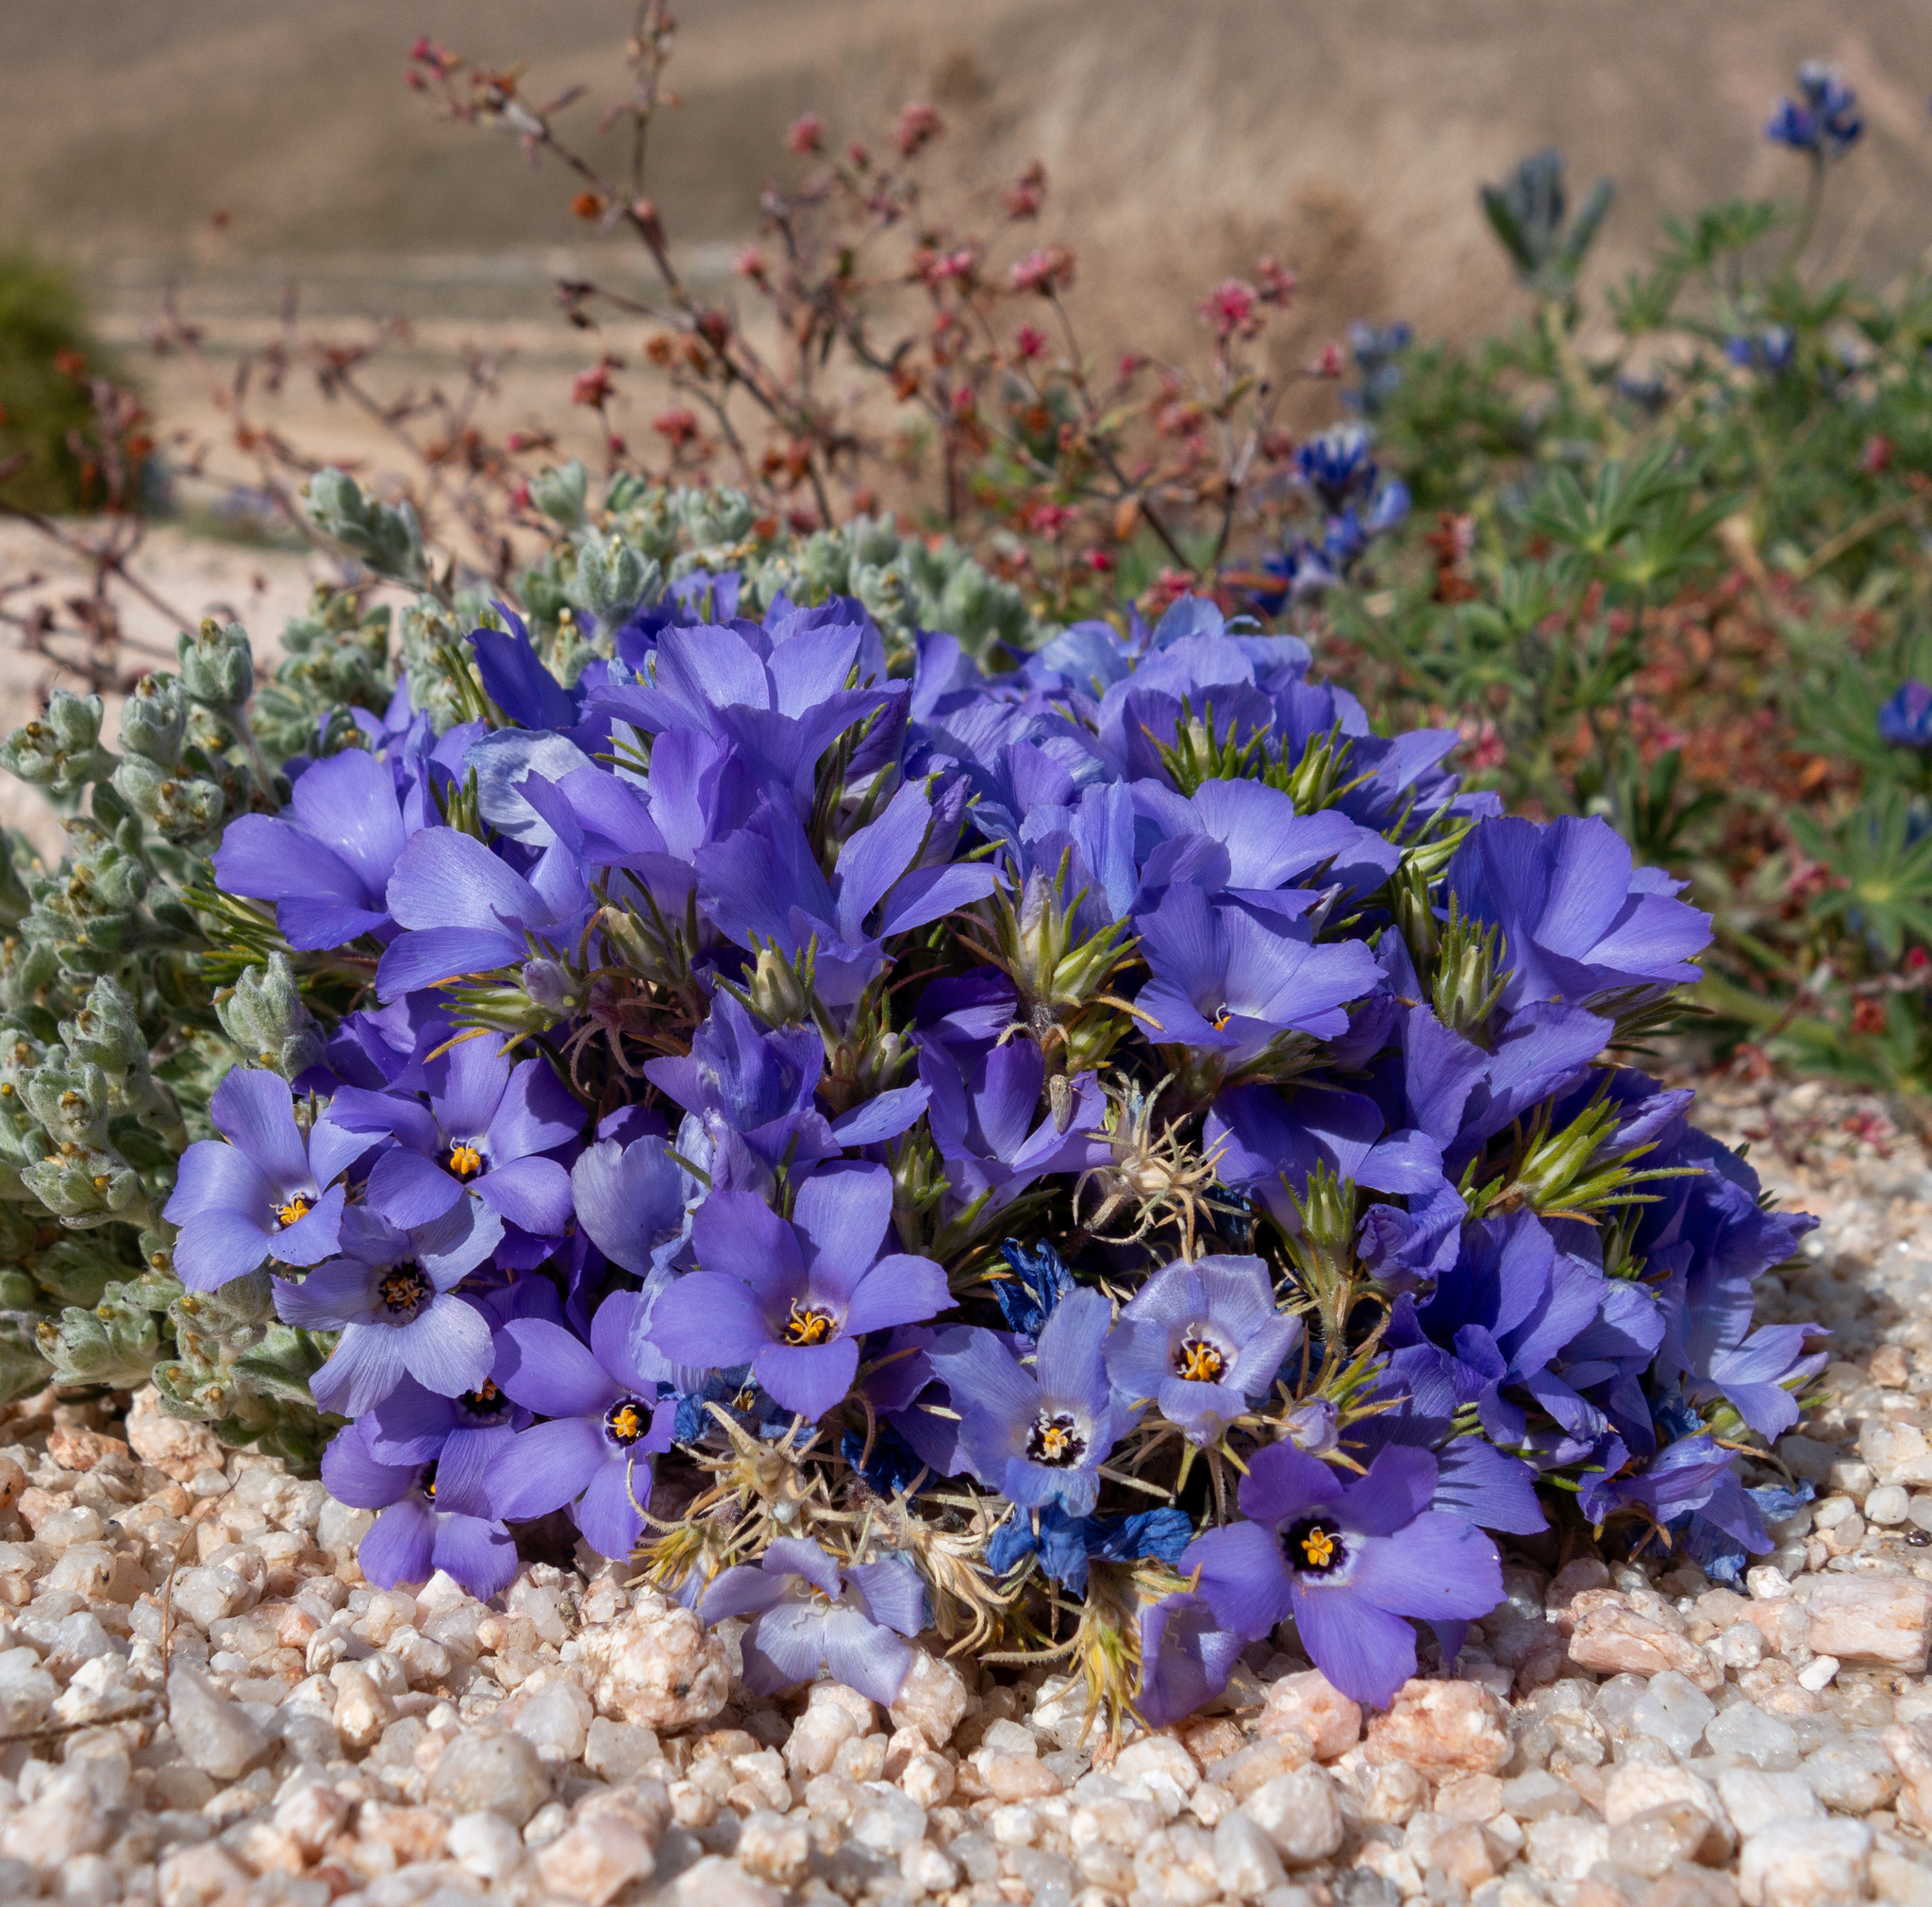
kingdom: Plantae
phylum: Tracheophyta
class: Magnoliopsida
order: Ericales
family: Polemoniaceae
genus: Linanthus
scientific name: Linanthus parryae
